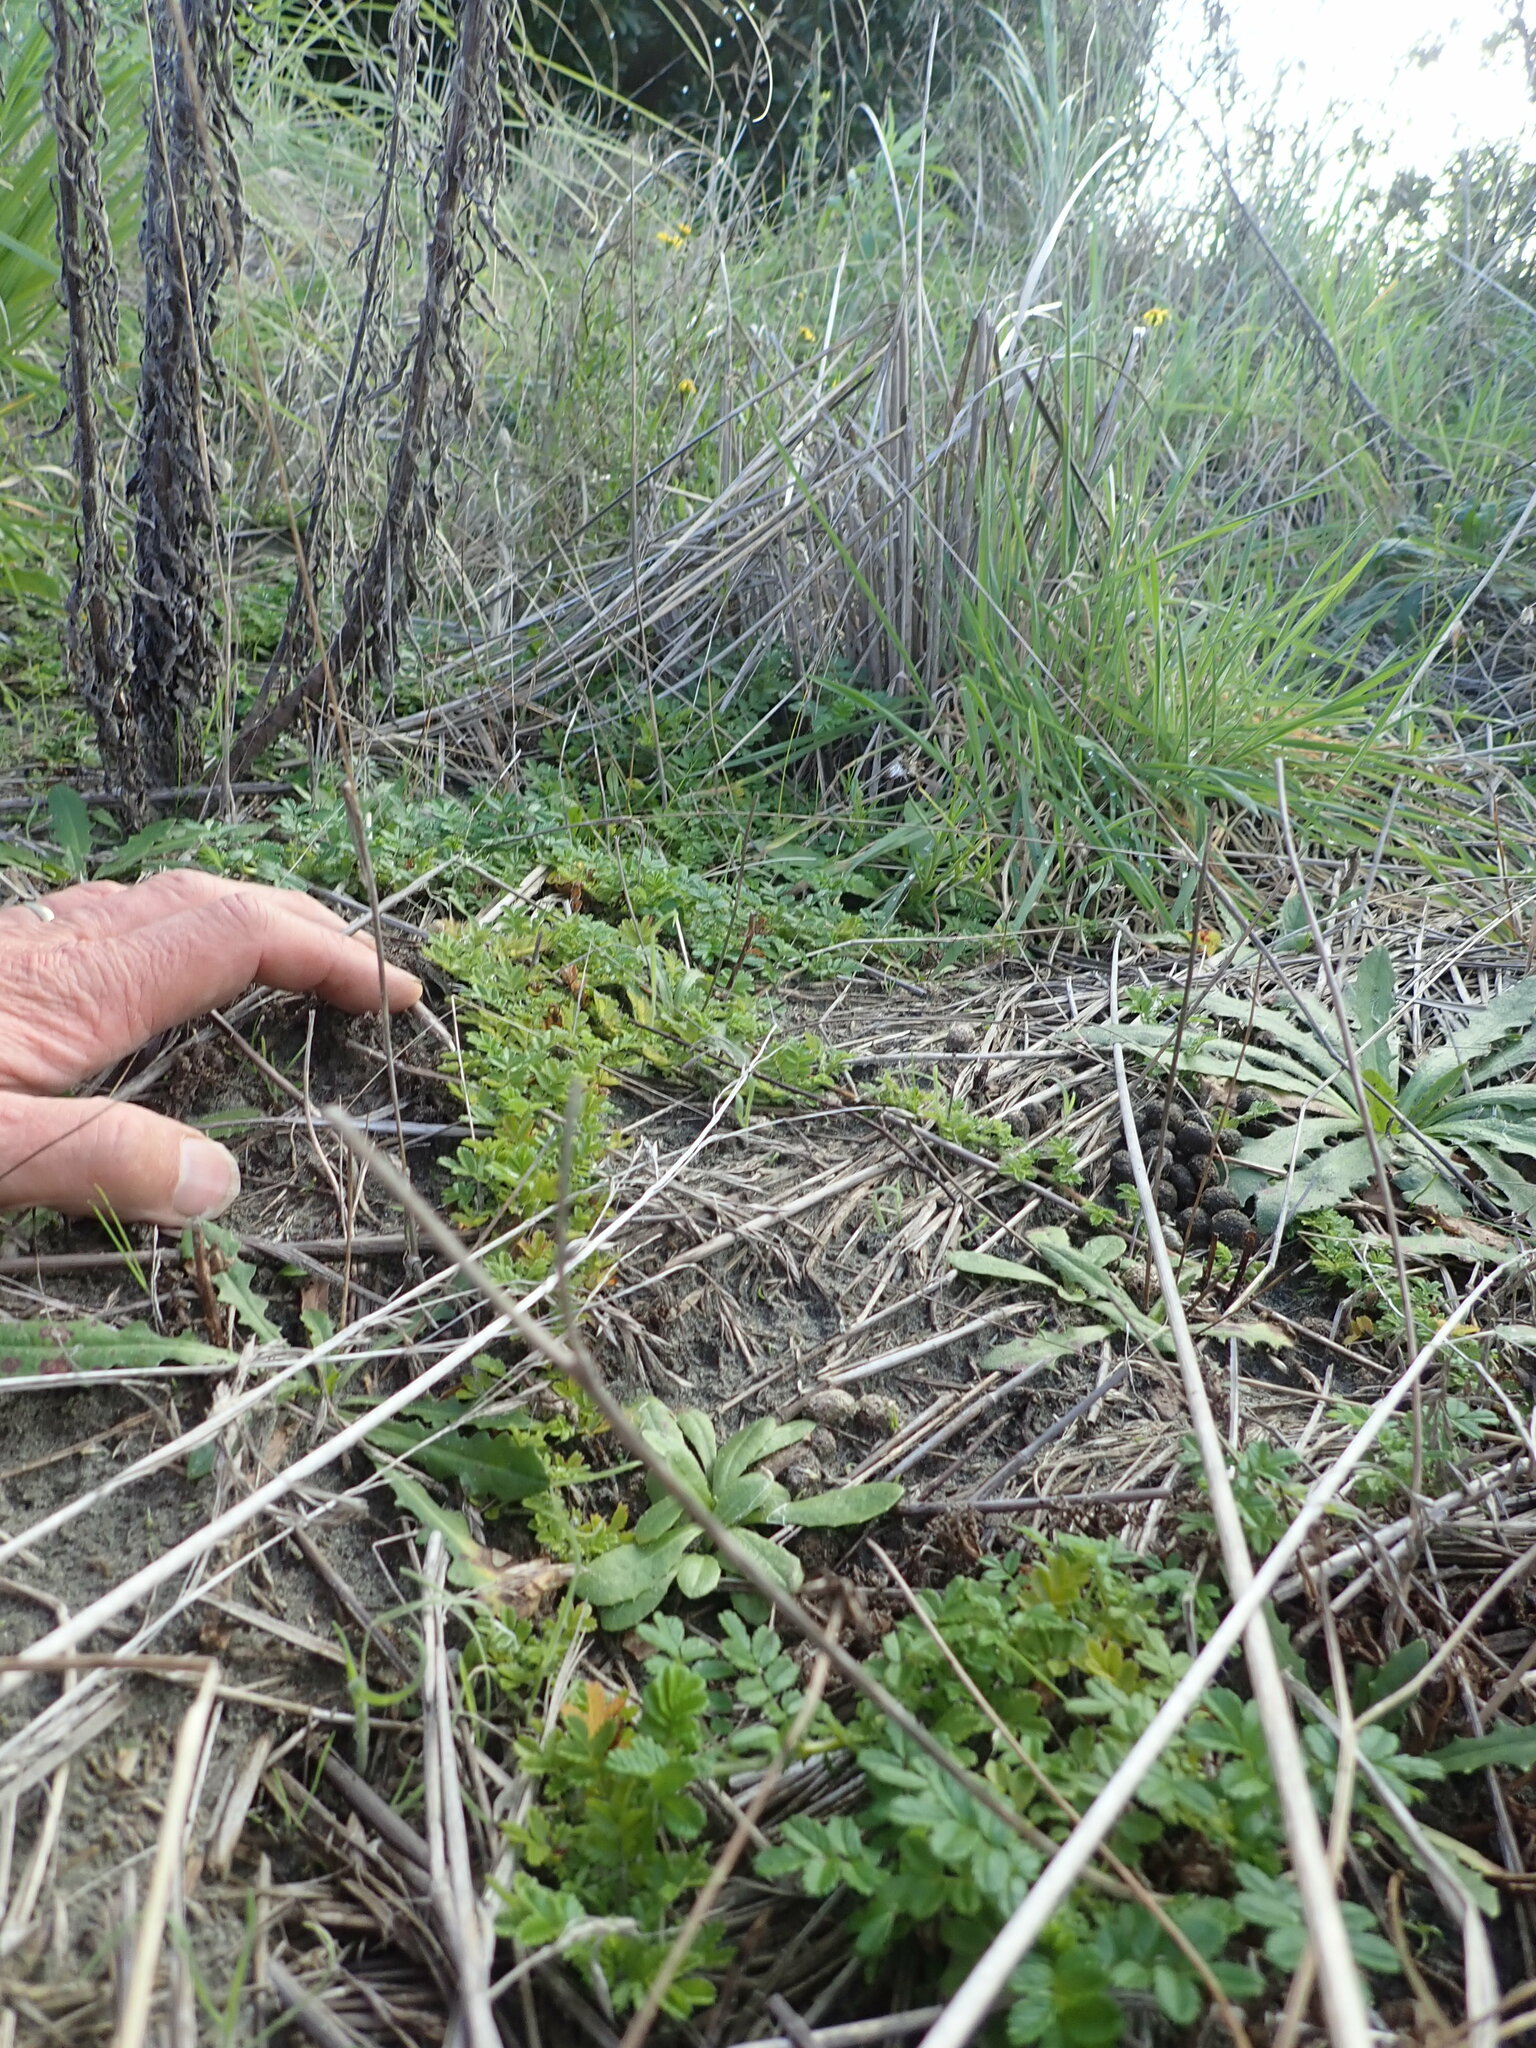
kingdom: Plantae
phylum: Tracheophyta
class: Magnoliopsida
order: Rosales
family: Rosaceae
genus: Acaena
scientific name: Acaena novae-zelandiae
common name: Pirri-pirri-bur
